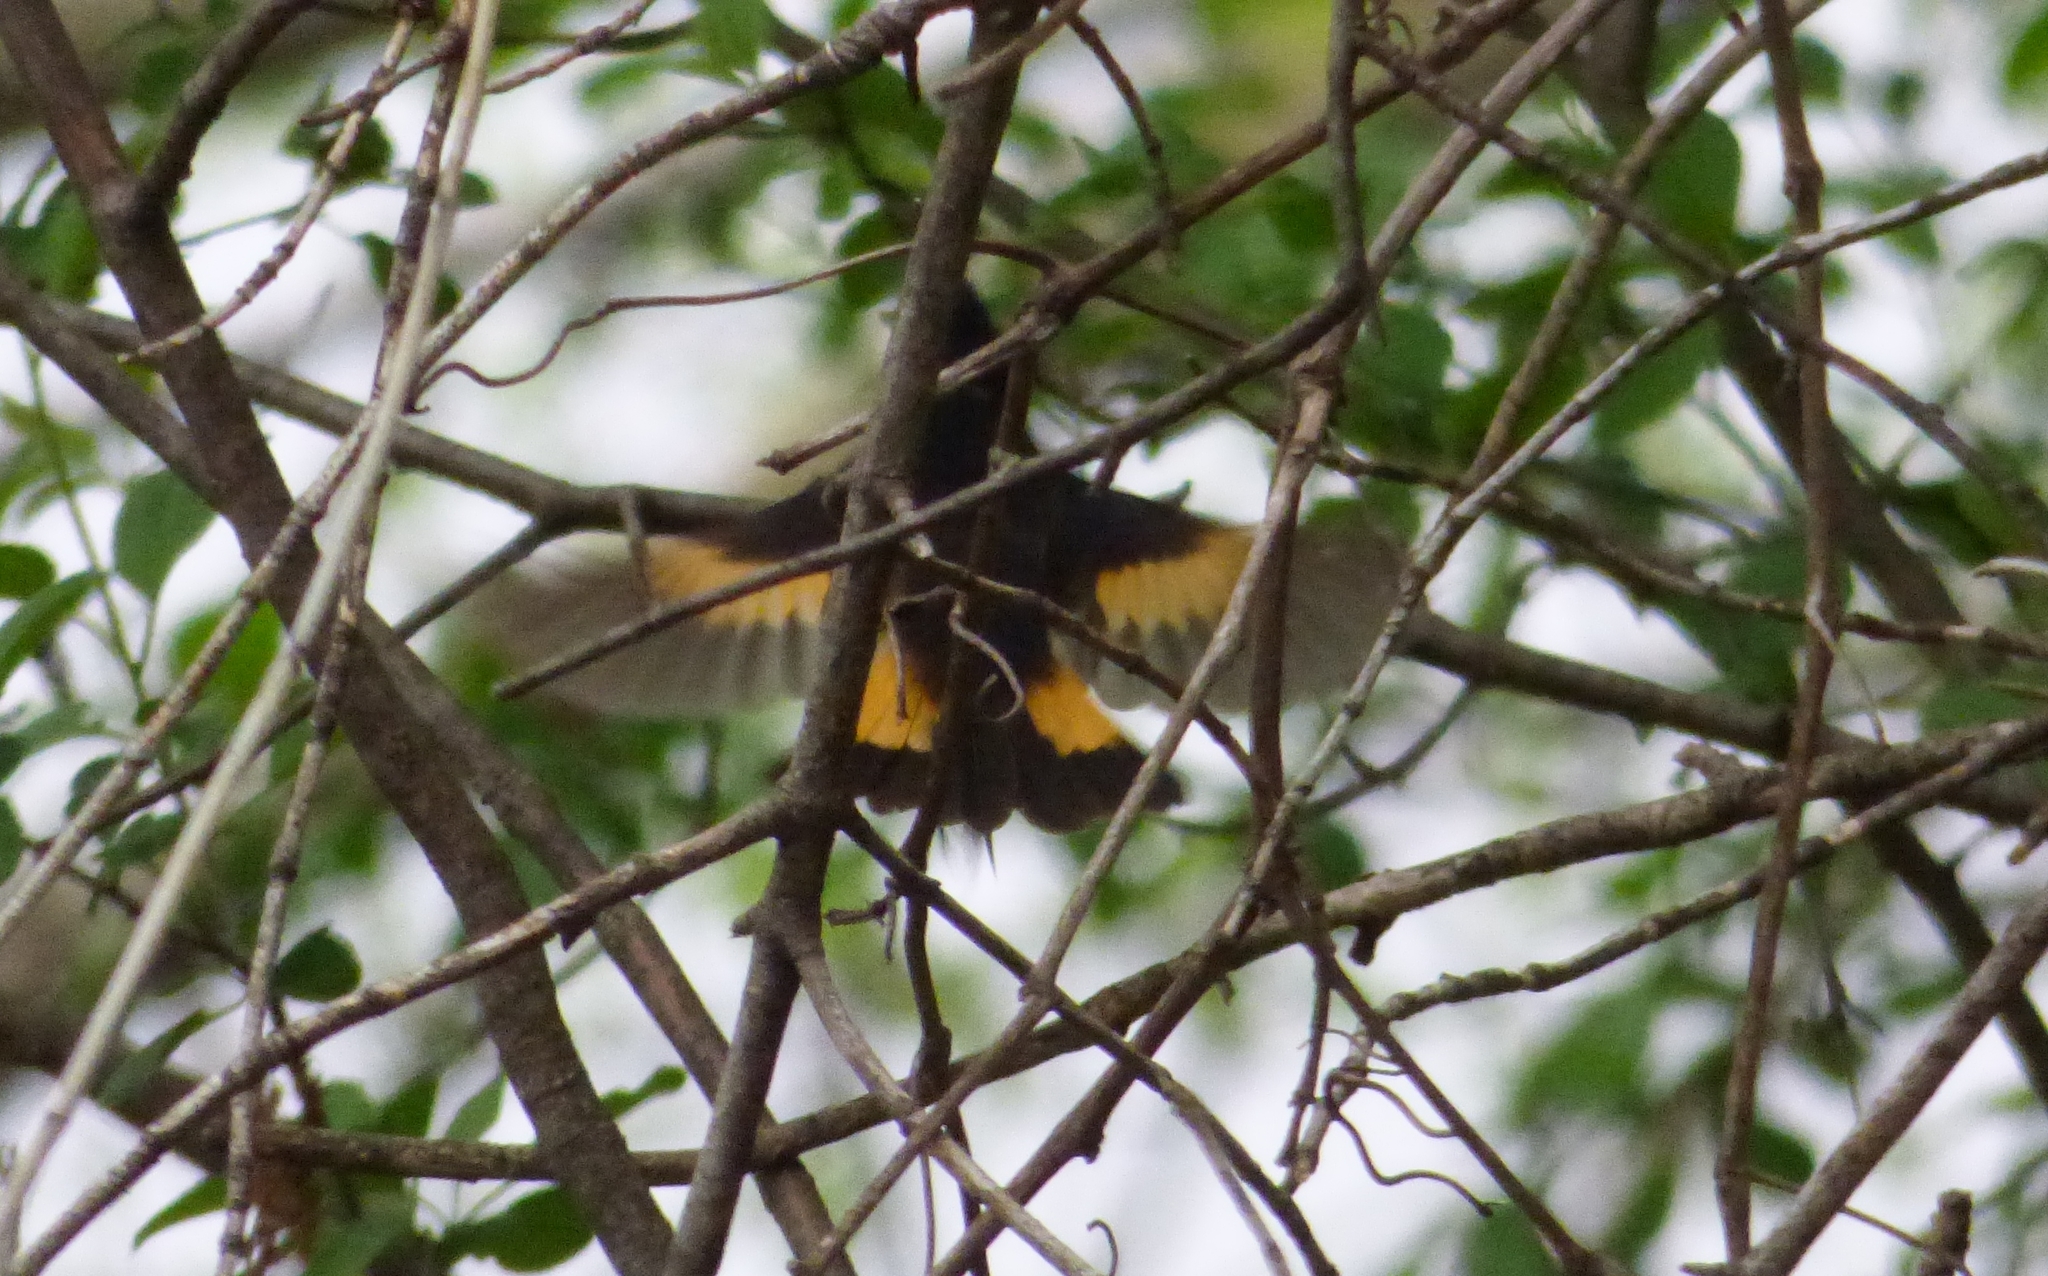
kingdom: Animalia
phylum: Chordata
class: Aves
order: Passeriformes
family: Parulidae
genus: Setophaga
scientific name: Setophaga ruticilla
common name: American redstart
